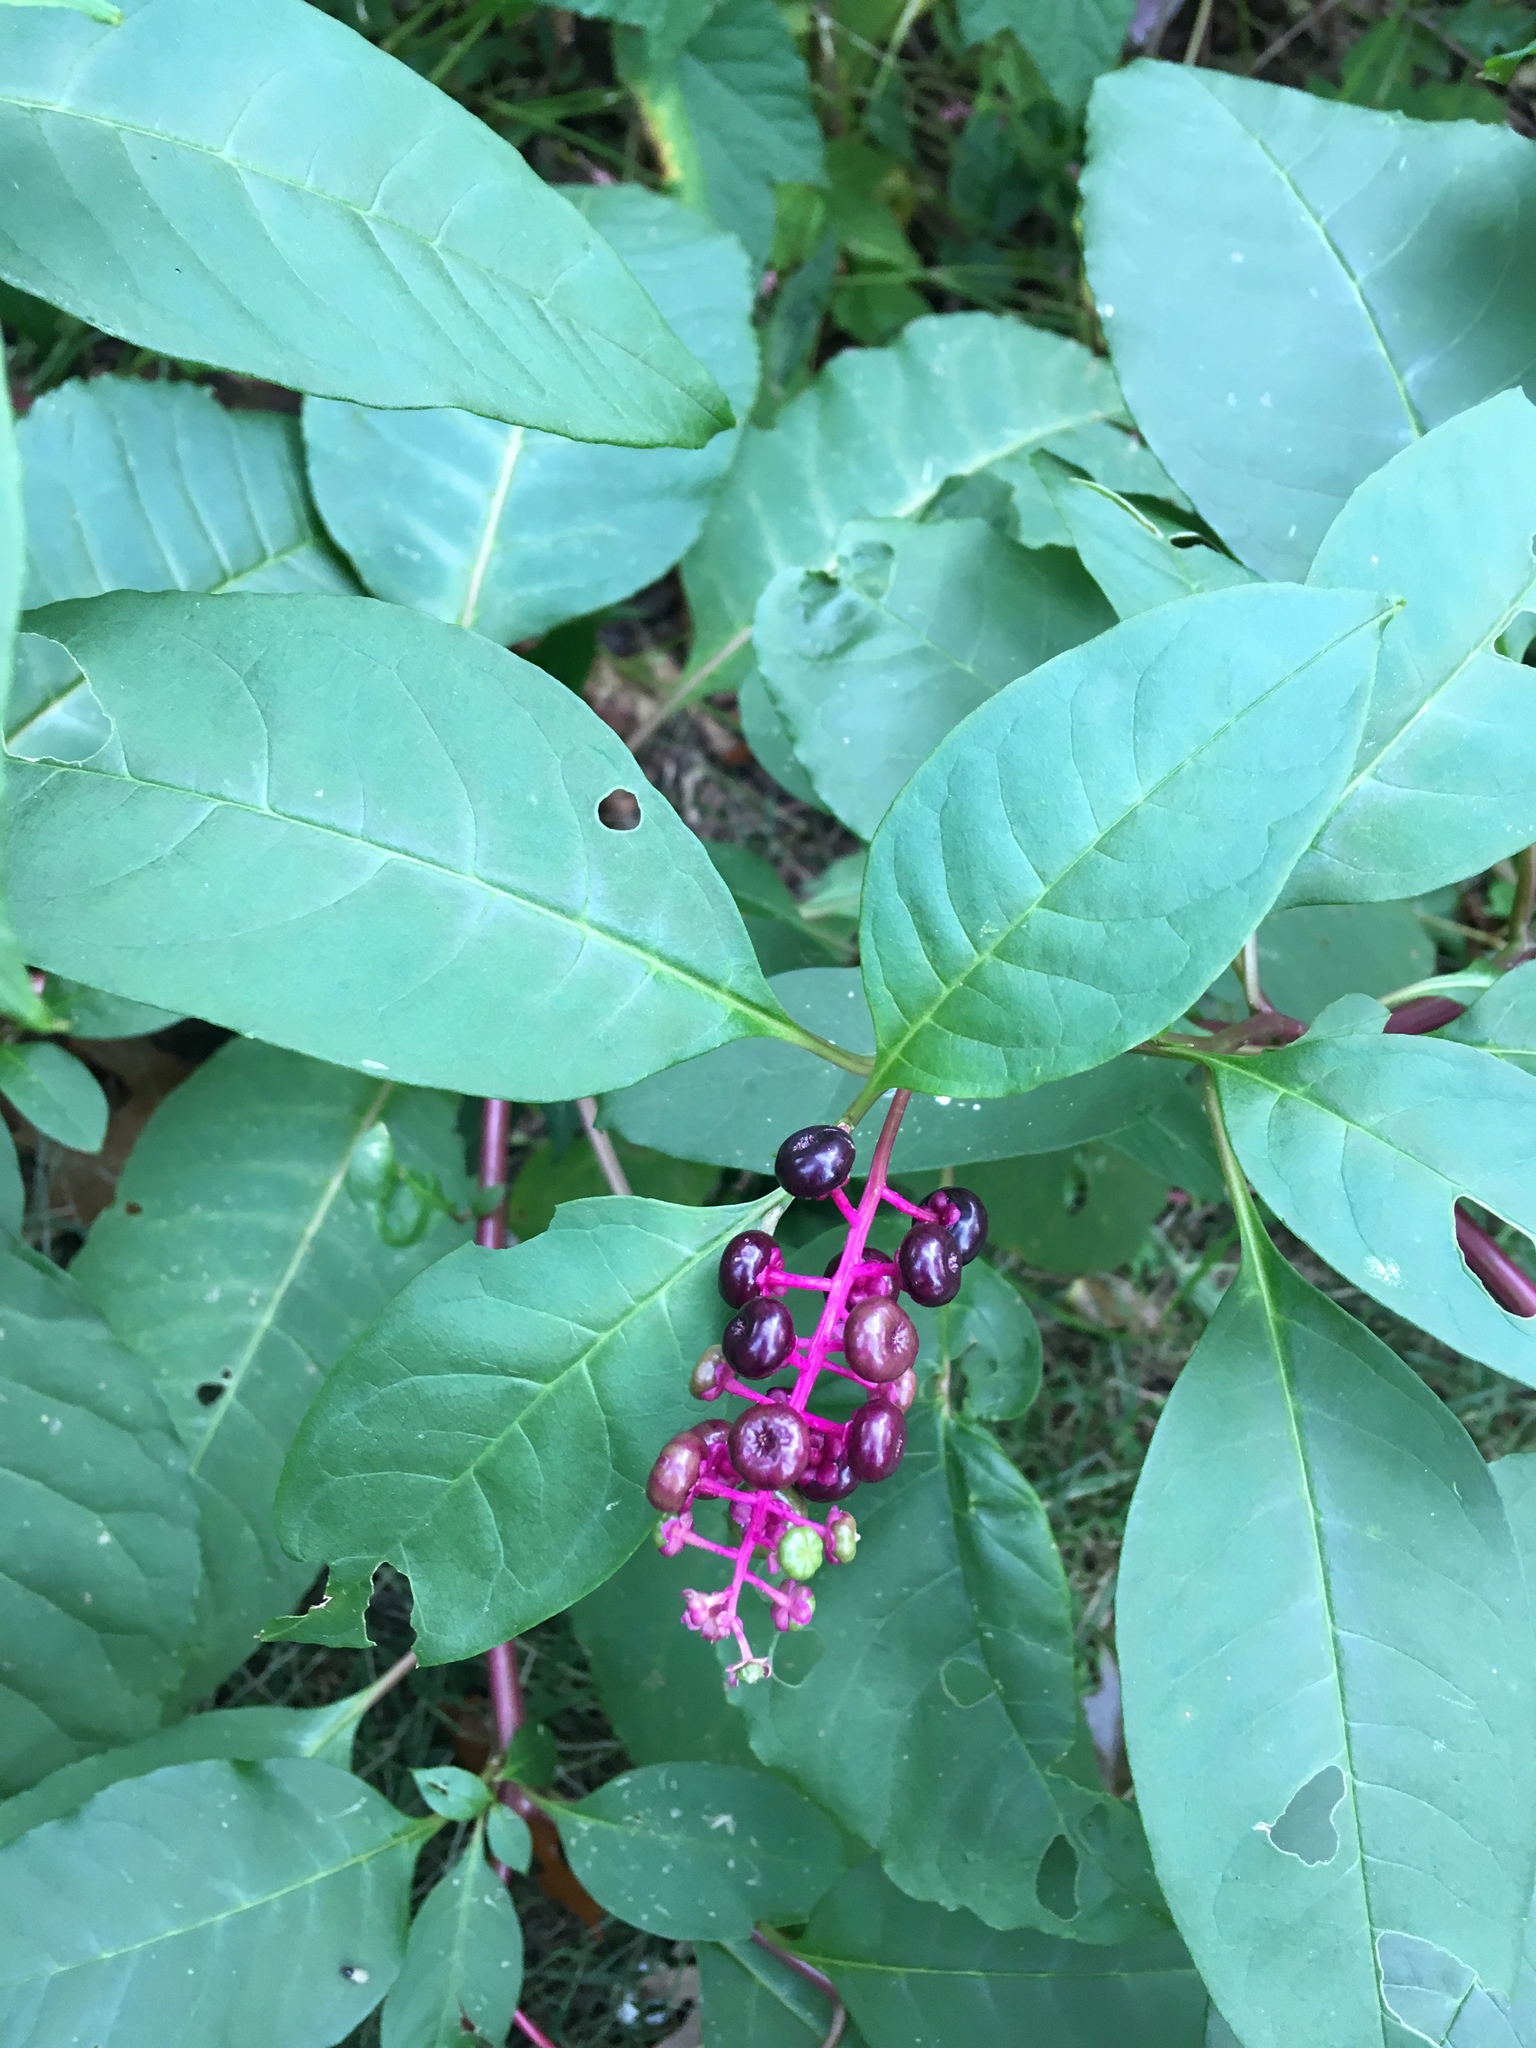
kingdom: Plantae
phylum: Tracheophyta
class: Magnoliopsida
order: Caryophyllales
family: Phytolaccaceae
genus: Phytolacca
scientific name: Phytolacca americana
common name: American pokeweed
